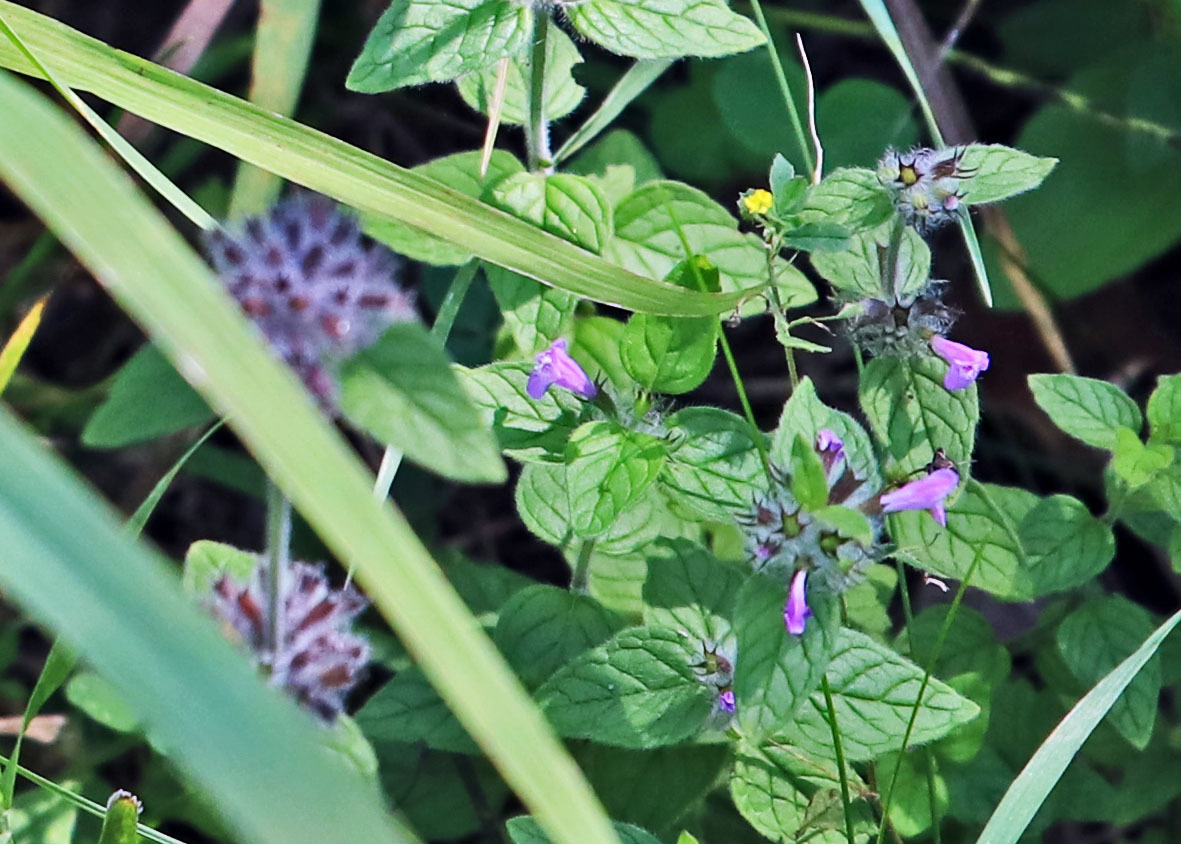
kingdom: Plantae
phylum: Tracheophyta
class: Magnoliopsida
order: Lamiales
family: Lamiaceae
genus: Clinopodium
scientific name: Clinopodium vulgare
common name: Wild basil
